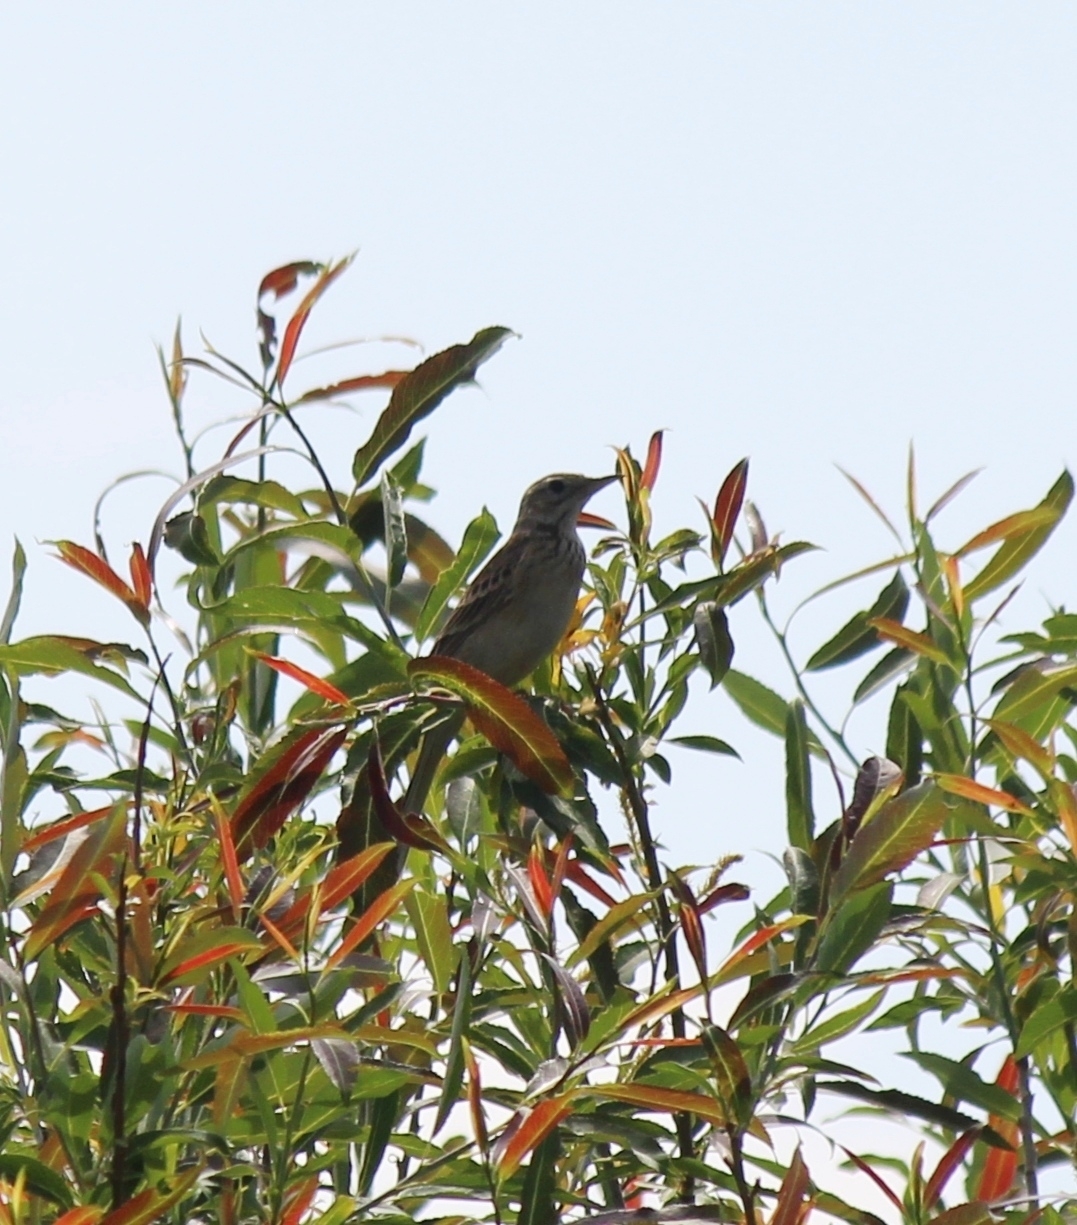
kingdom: Animalia
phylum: Chordata
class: Aves
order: Passeriformes
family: Motacillidae
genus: Anthus
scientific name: Anthus richardi
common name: Richard's pipit
